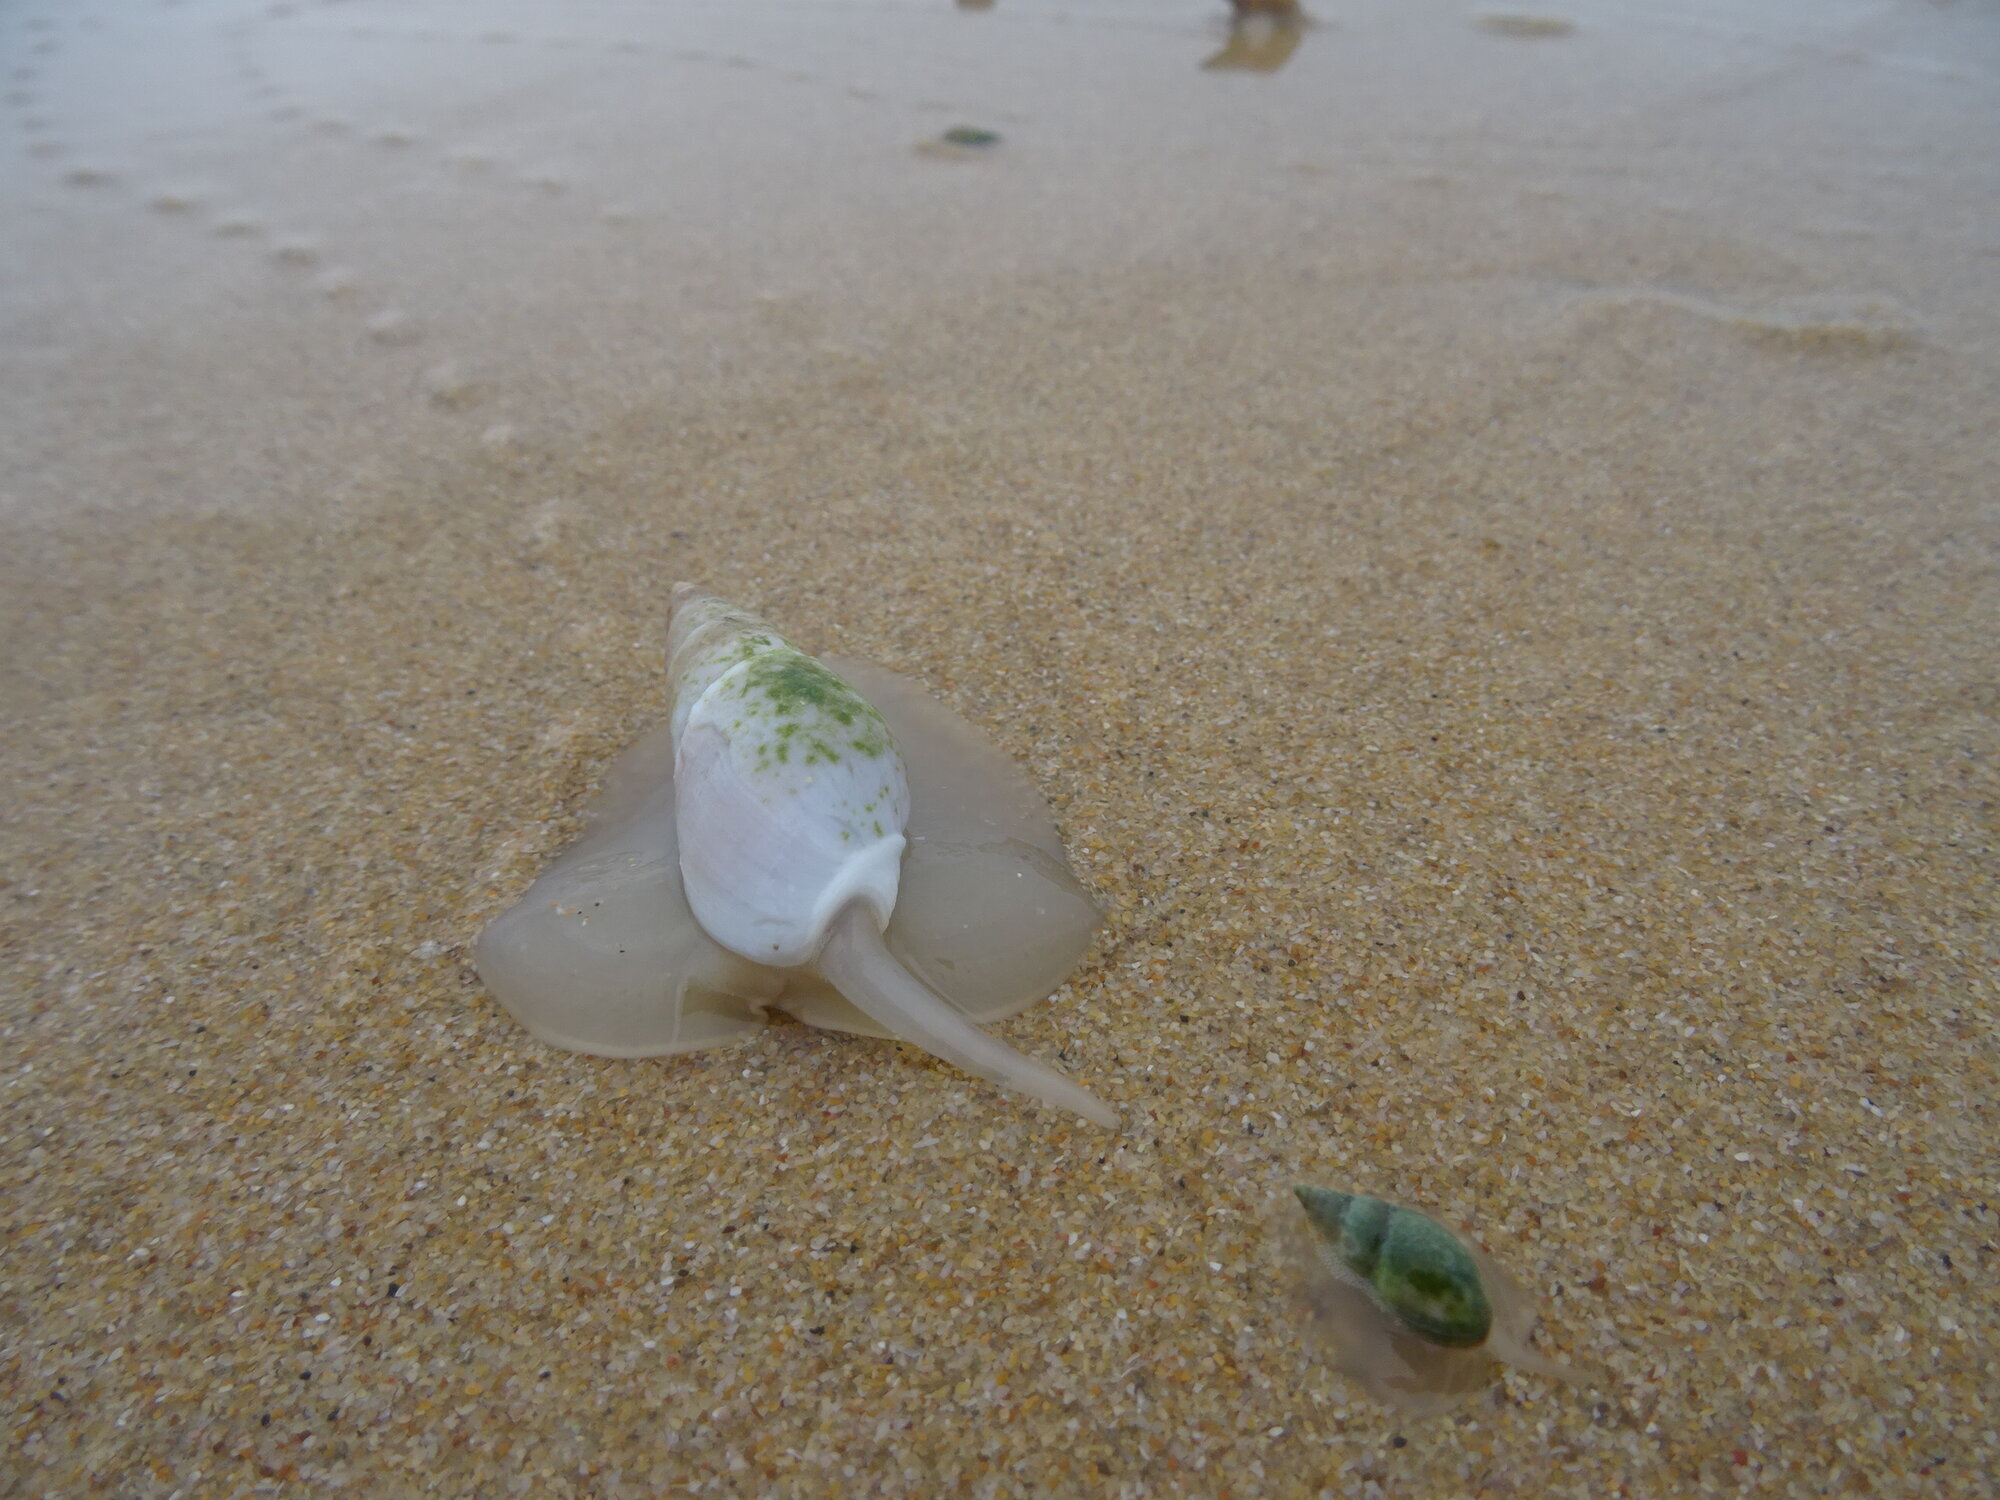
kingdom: Animalia
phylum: Mollusca
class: Gastropoda
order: Neogastropoda
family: Nassariidae
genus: Bullia
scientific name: Bullia rhodostoma
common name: Smooth plough shell
